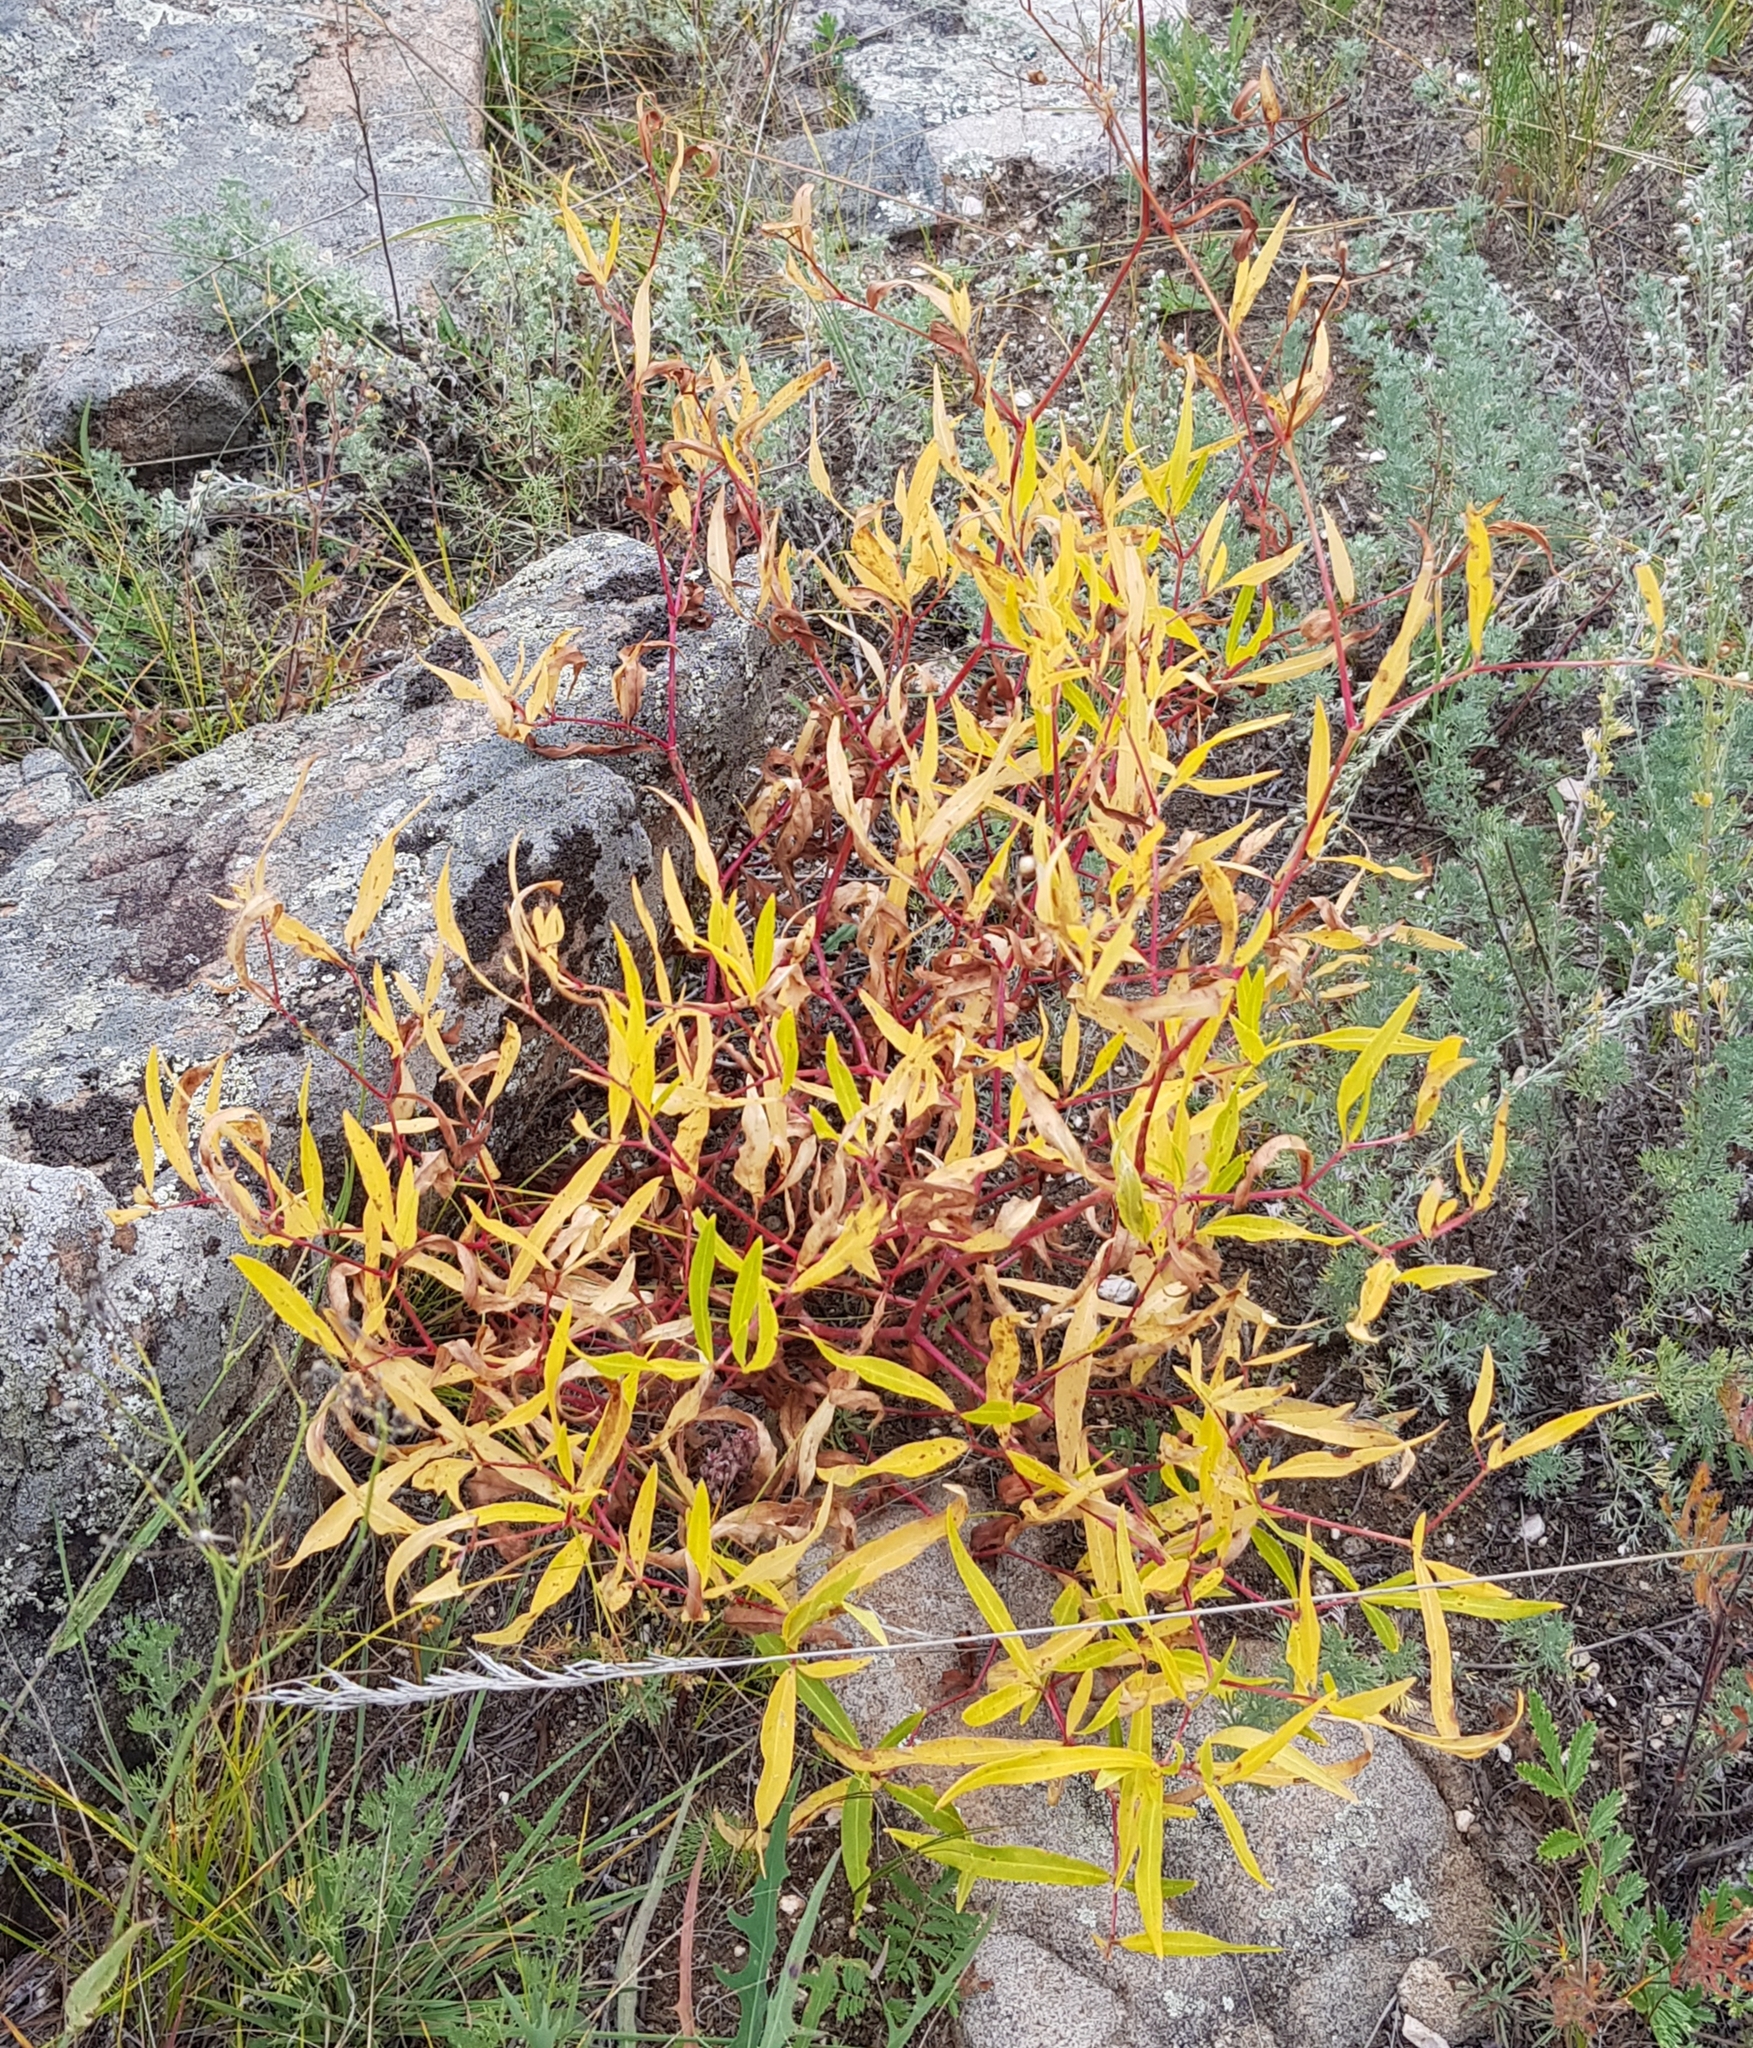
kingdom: Plantae
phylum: Tracheophyta
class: Magnoliopsida
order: Caryophyllales
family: Polygonaceae
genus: Koenigia
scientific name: Koenigia divaricata
